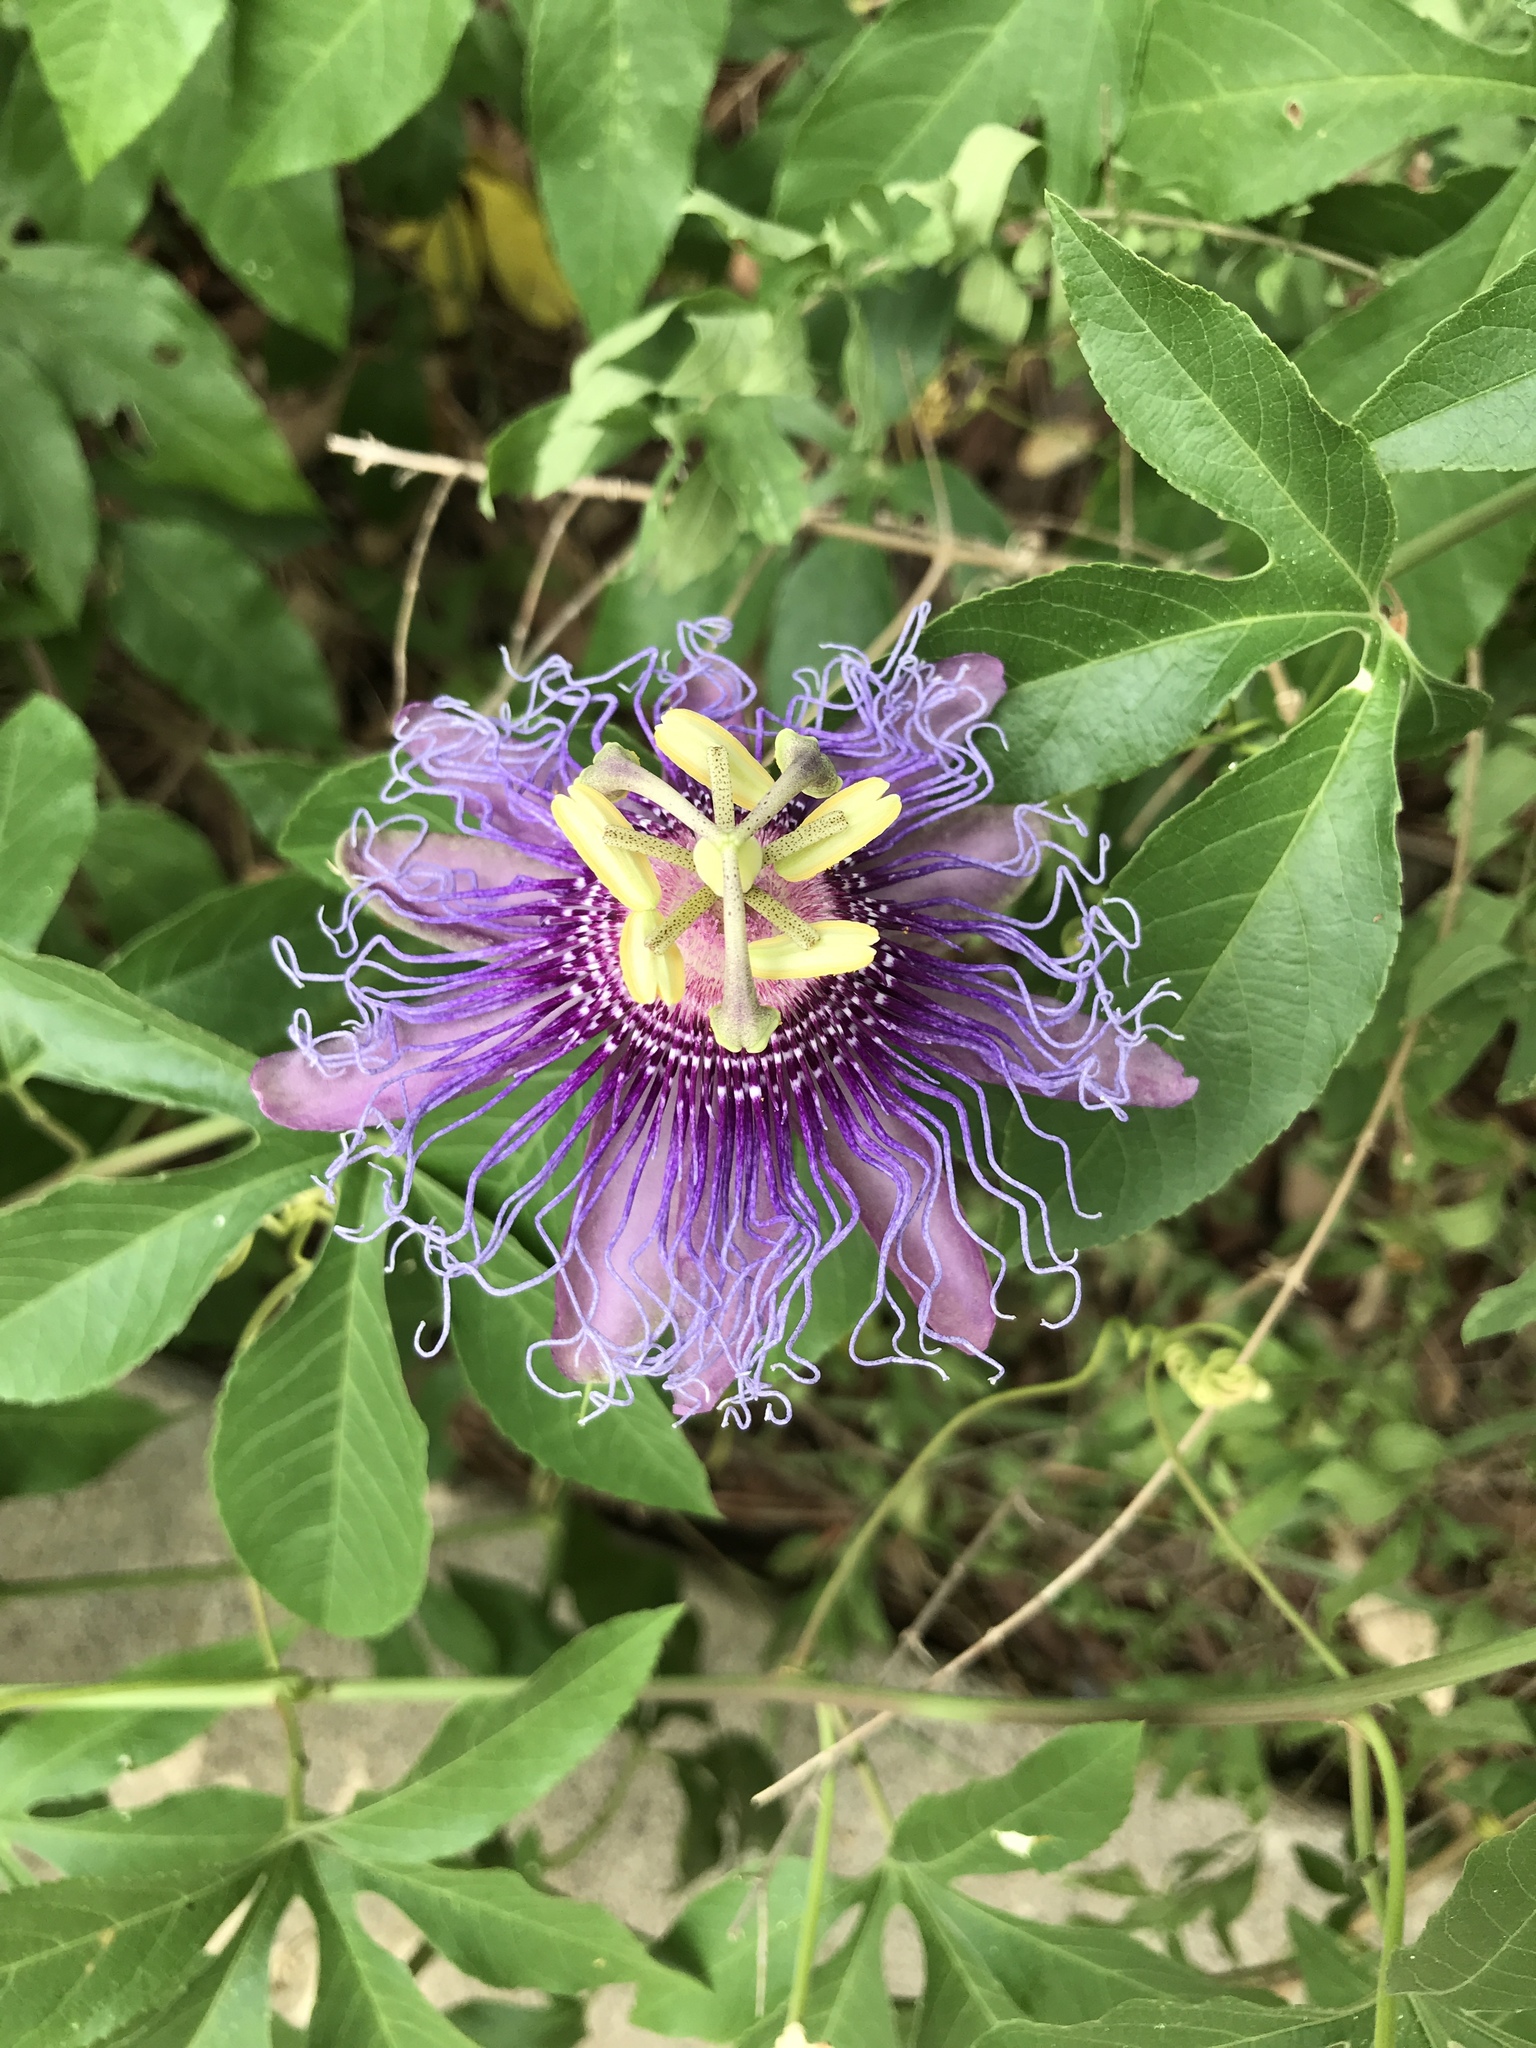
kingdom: Plantae
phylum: Tracheophyta
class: Magnoliopsida
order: Malpighiales
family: Passifloraceae
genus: Passiflora
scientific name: Passiflora
